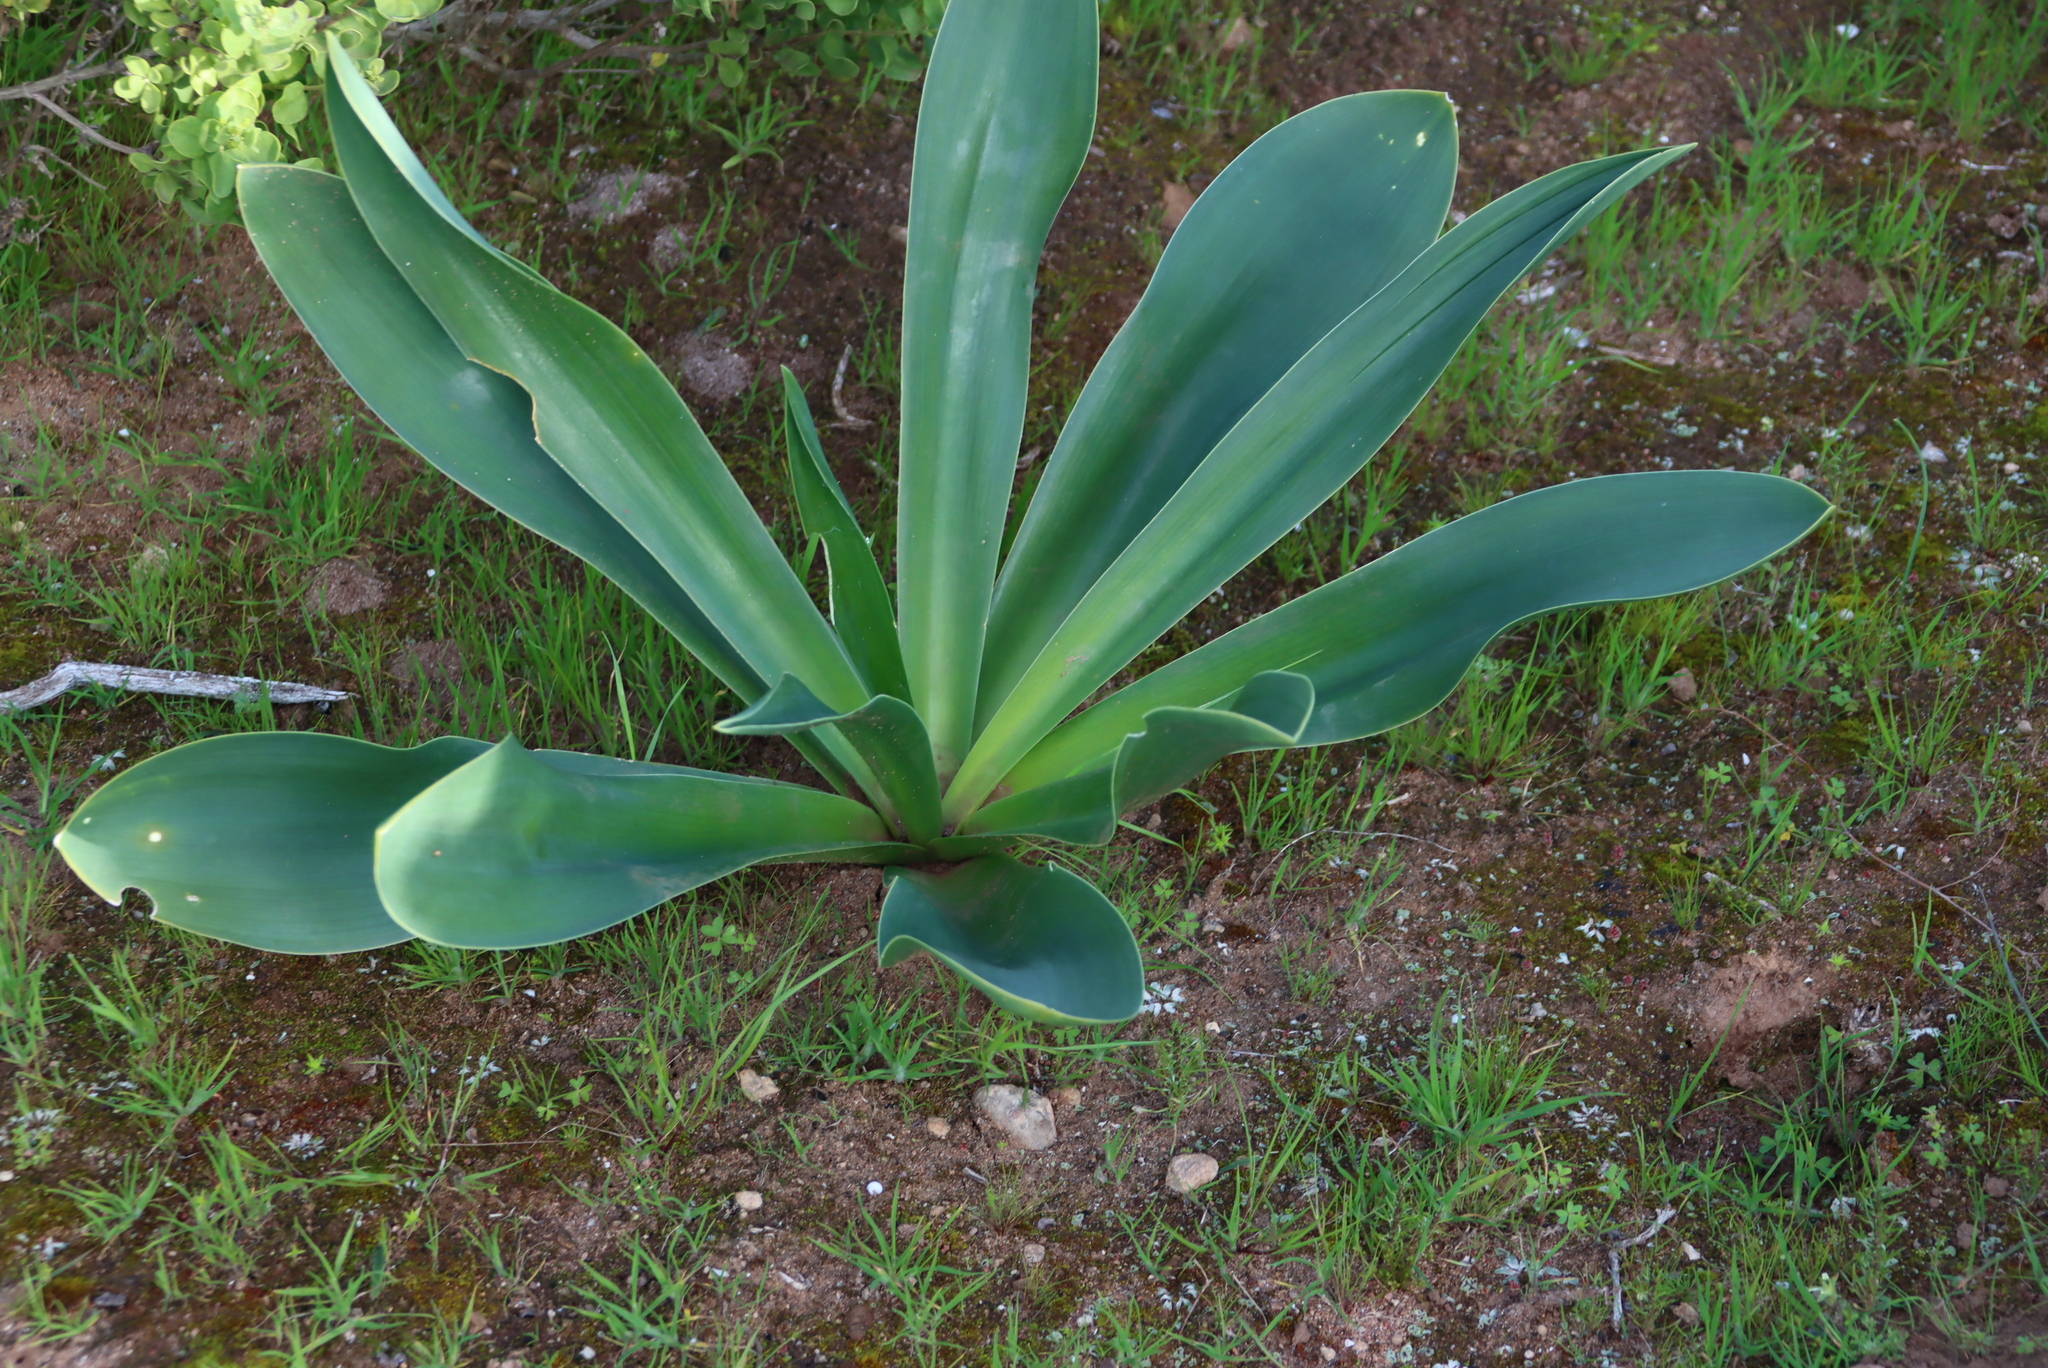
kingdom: Plantae
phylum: Tracheophyta
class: Liliopsida
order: Asparagales
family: Asparagaceae
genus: Drimia
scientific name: Drimia capensis
